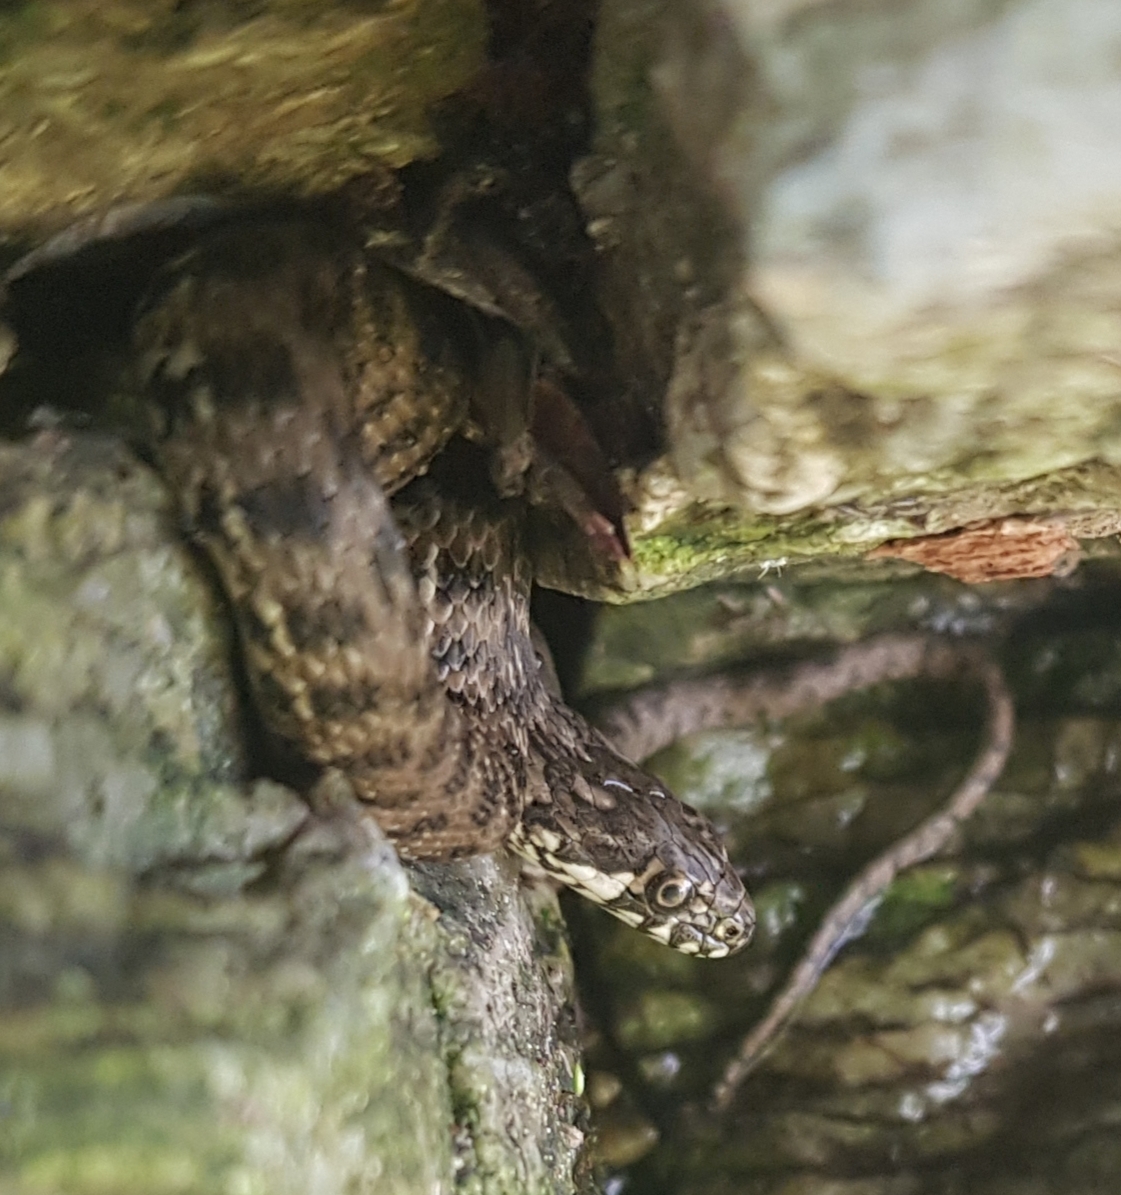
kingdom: Animalia
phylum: Chordata
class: Squamata
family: Colubridae
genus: Natrix
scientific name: Natrix maura
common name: Viperine water snake
